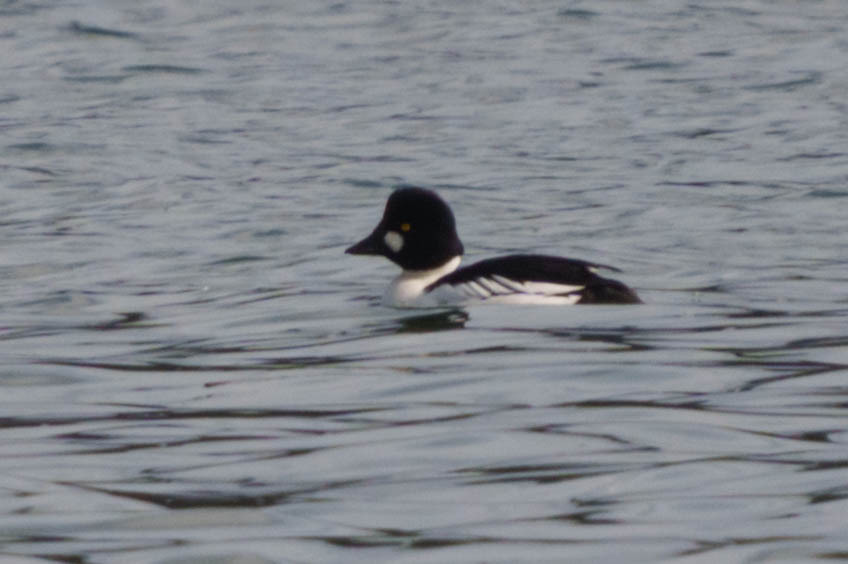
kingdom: Animalia
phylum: Chordata
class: Aves
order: Anseriformes
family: Anatidae
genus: Bucephala
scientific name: Bucephala clangula
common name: Common goldeneye
